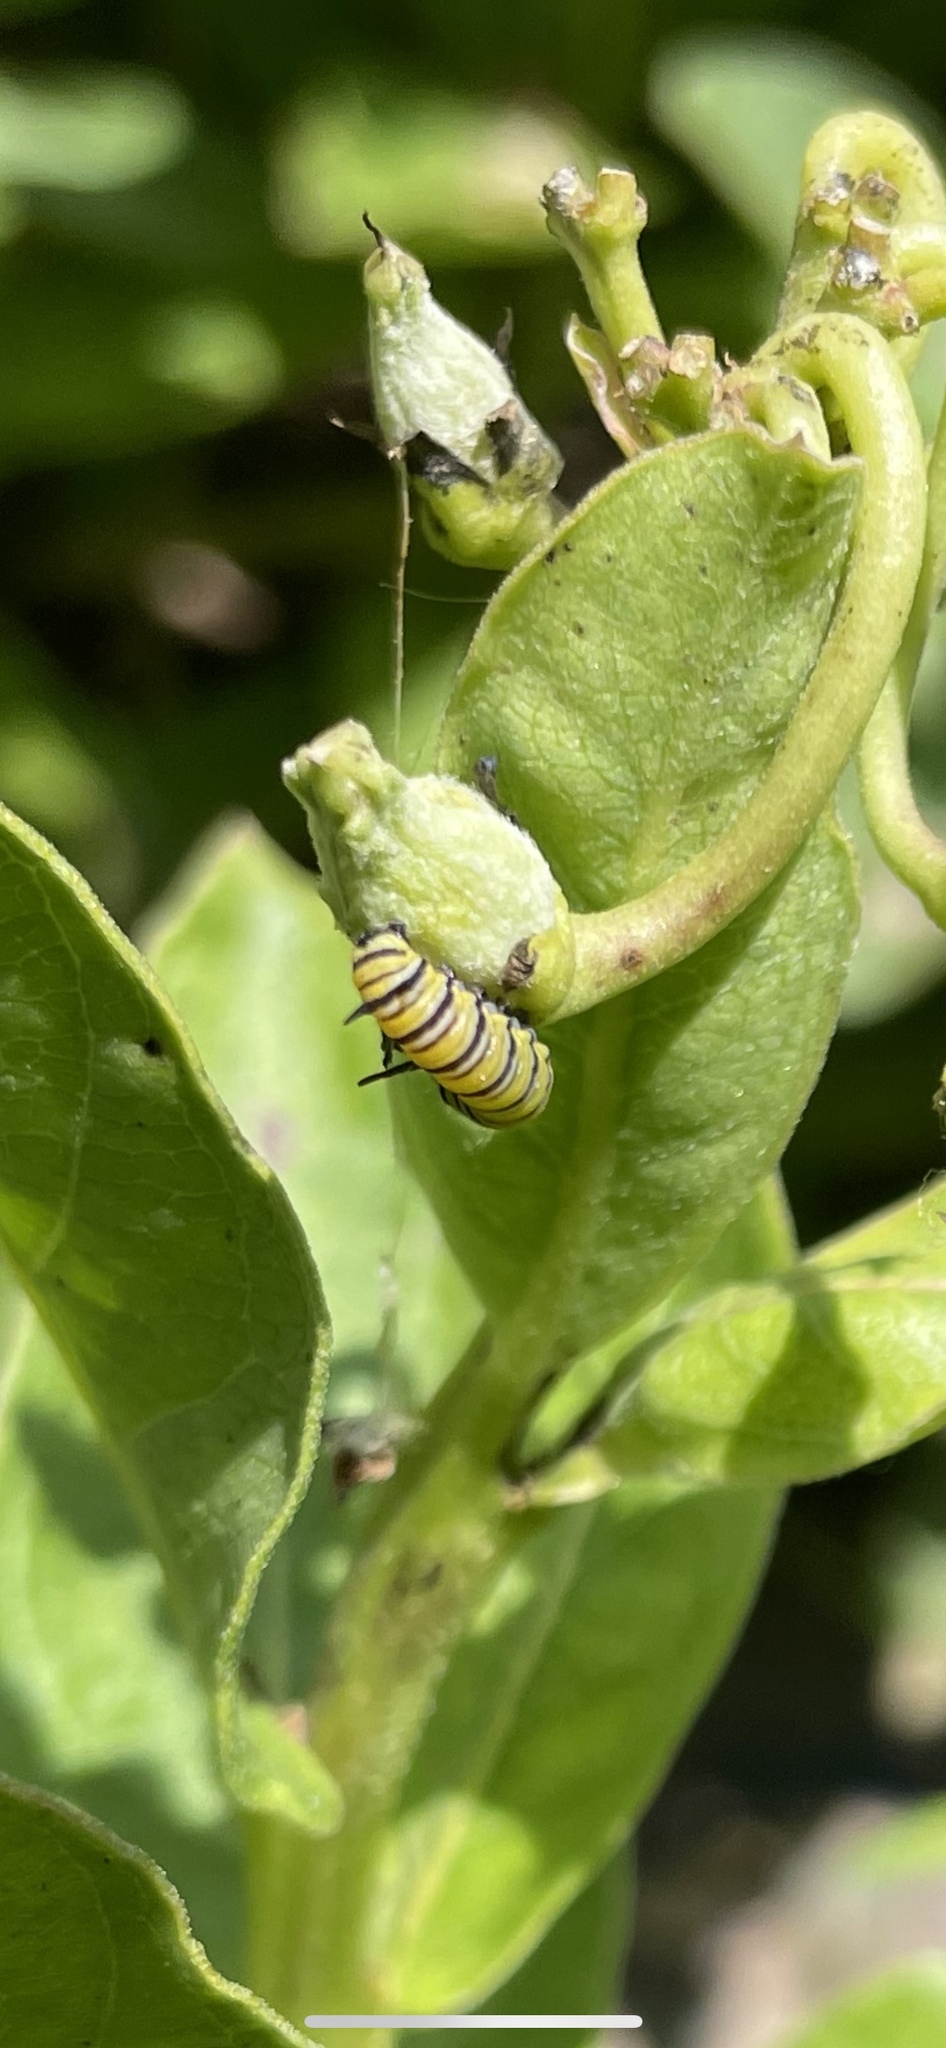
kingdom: Animalia
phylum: Arthropoda
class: Insecta
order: Lepidoptera
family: Nymphalidae
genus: Danaus
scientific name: Danaus plexippus
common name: Monarch
